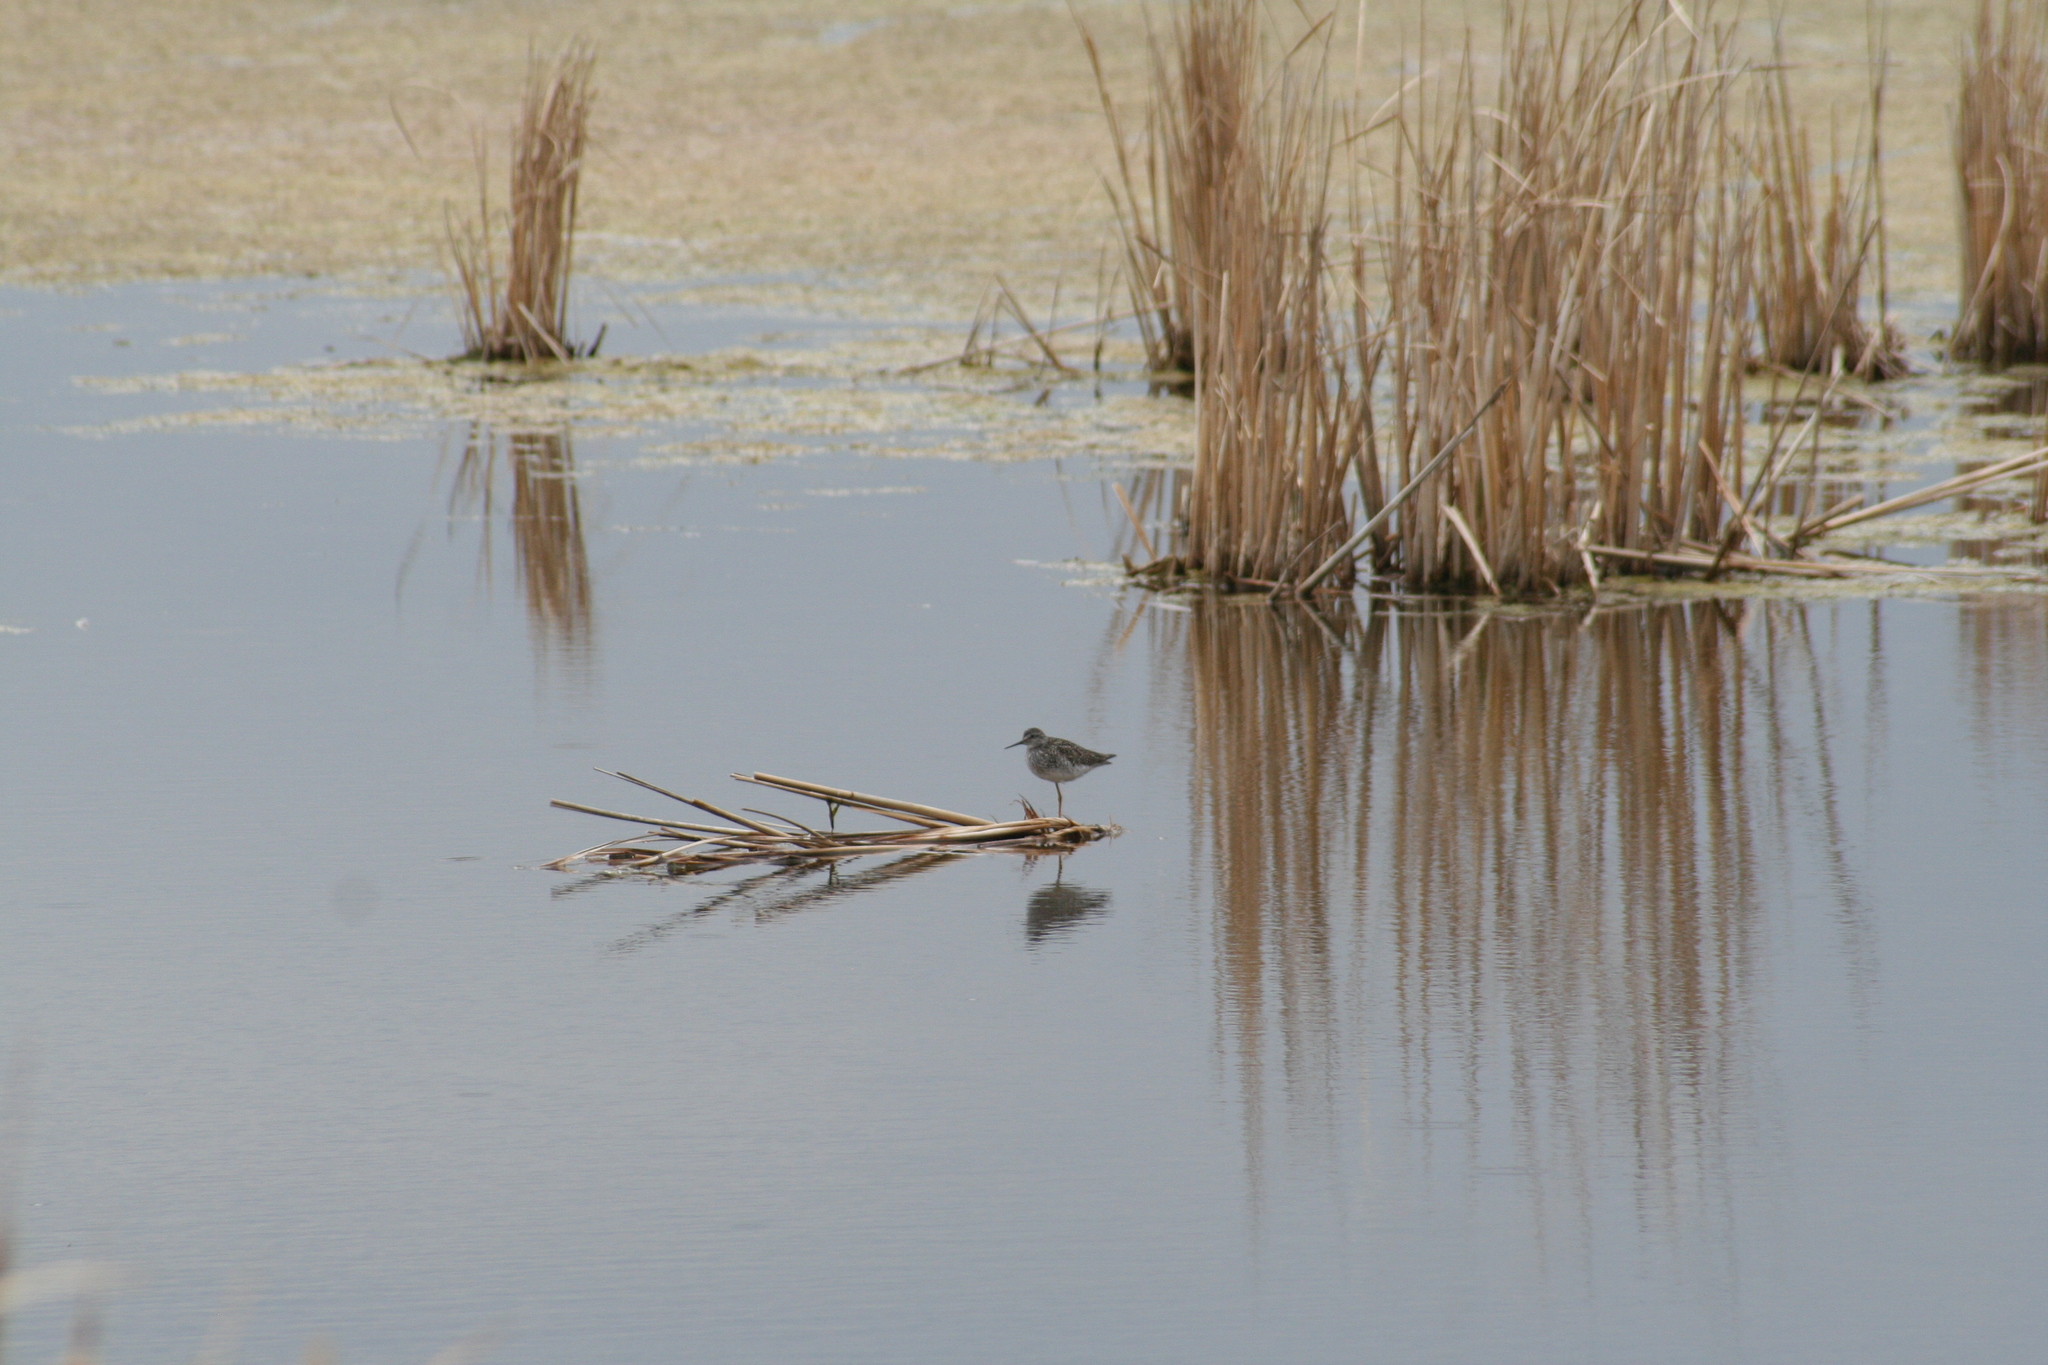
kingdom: Animalia
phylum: Chordata
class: Aves
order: Charadriiformes
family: Scolopacidae
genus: Tringa
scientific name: Tringa flavipes
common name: Lesser yellowlegs
